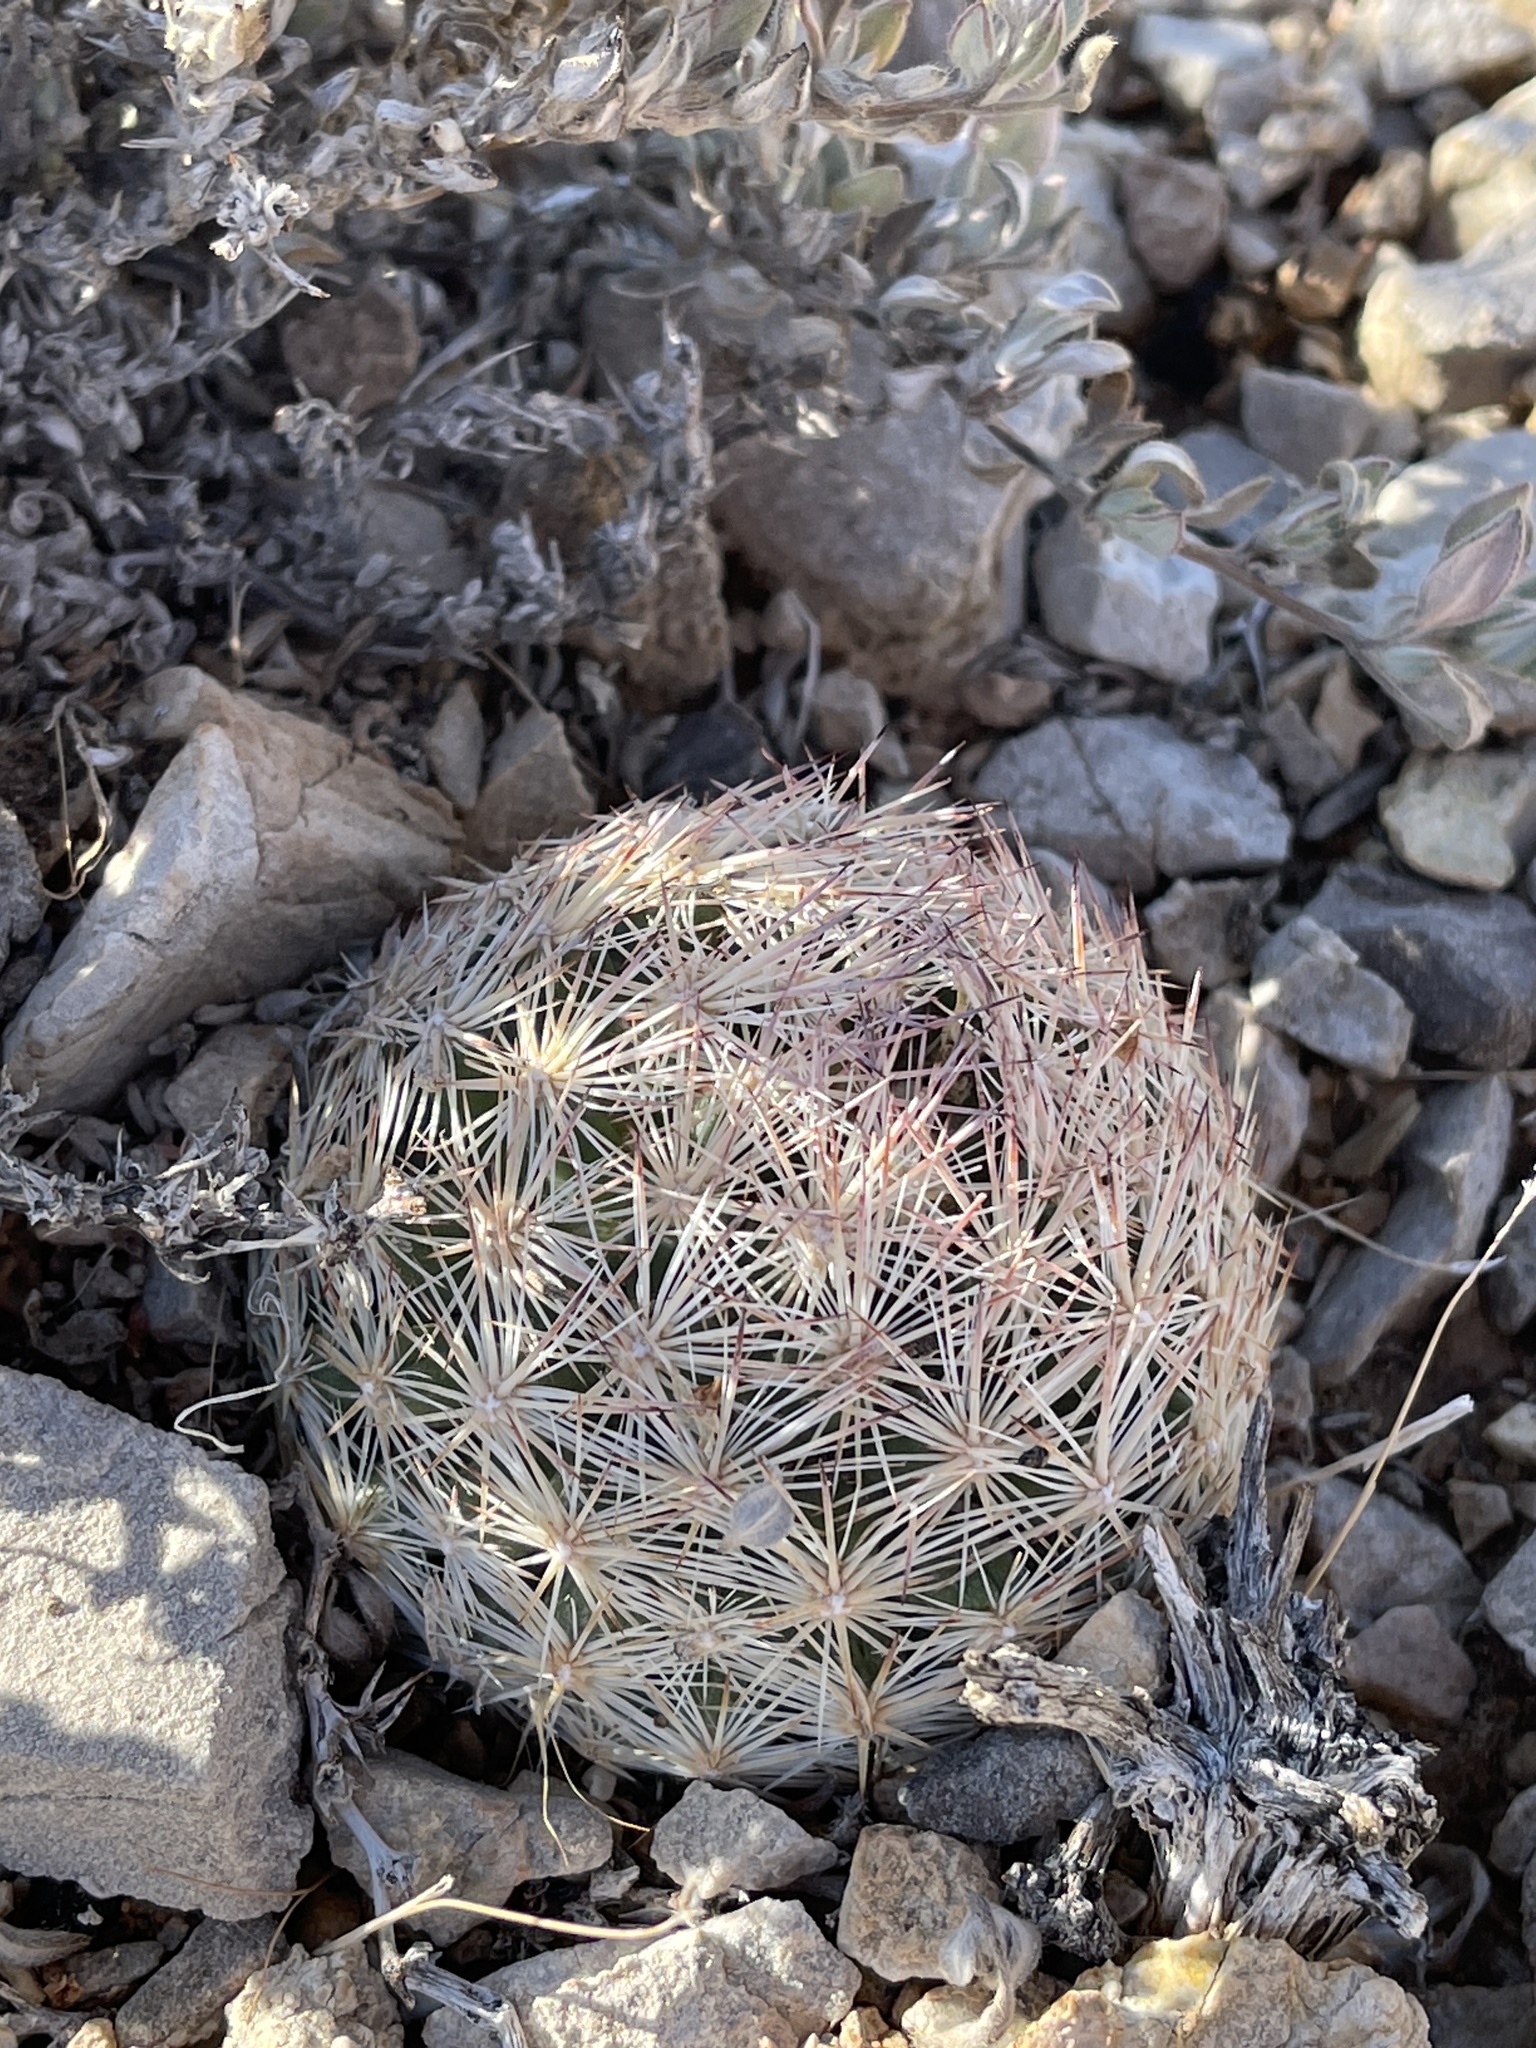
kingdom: Plantae
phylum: Tracheophyta
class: Magnoliopsida
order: Caryophyllales
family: Cactaceae
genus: Pelecyphora
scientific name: Pelecyphora dasyacantha
